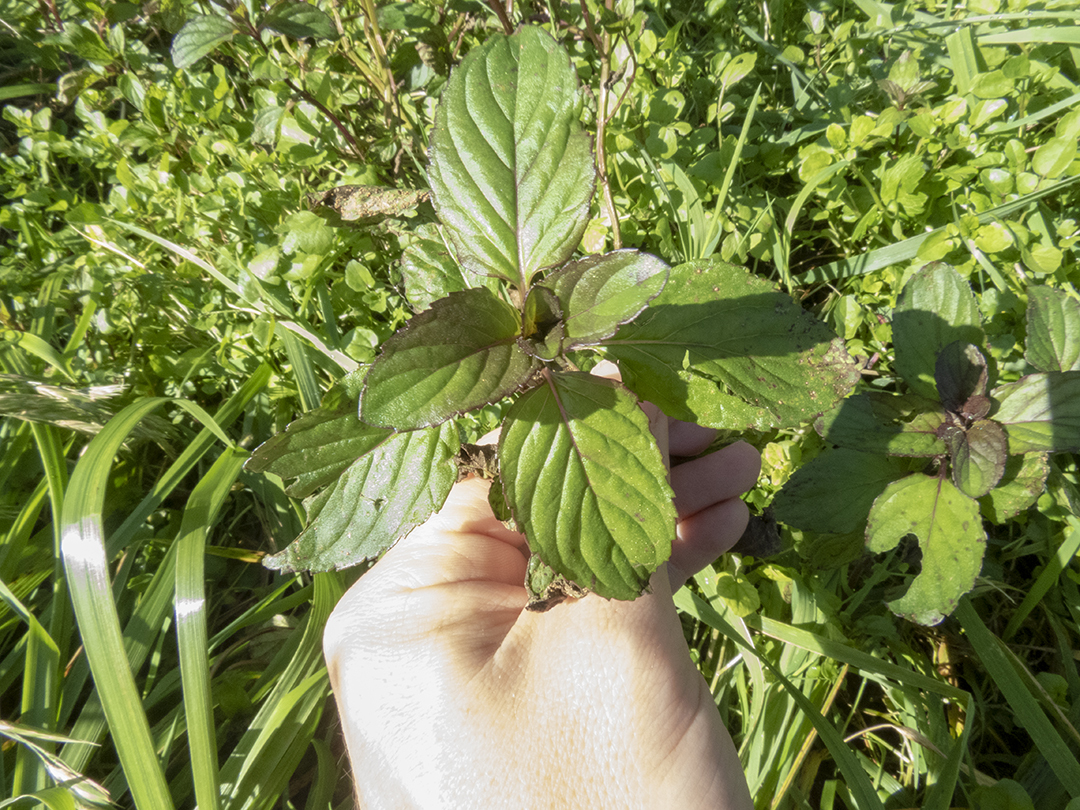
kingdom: Plantae
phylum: Tracheophyta
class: Magnoliopsida
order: Lamiales
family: Lamiaceae
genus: Mentha
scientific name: Mentha piperita
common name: Peppermint
